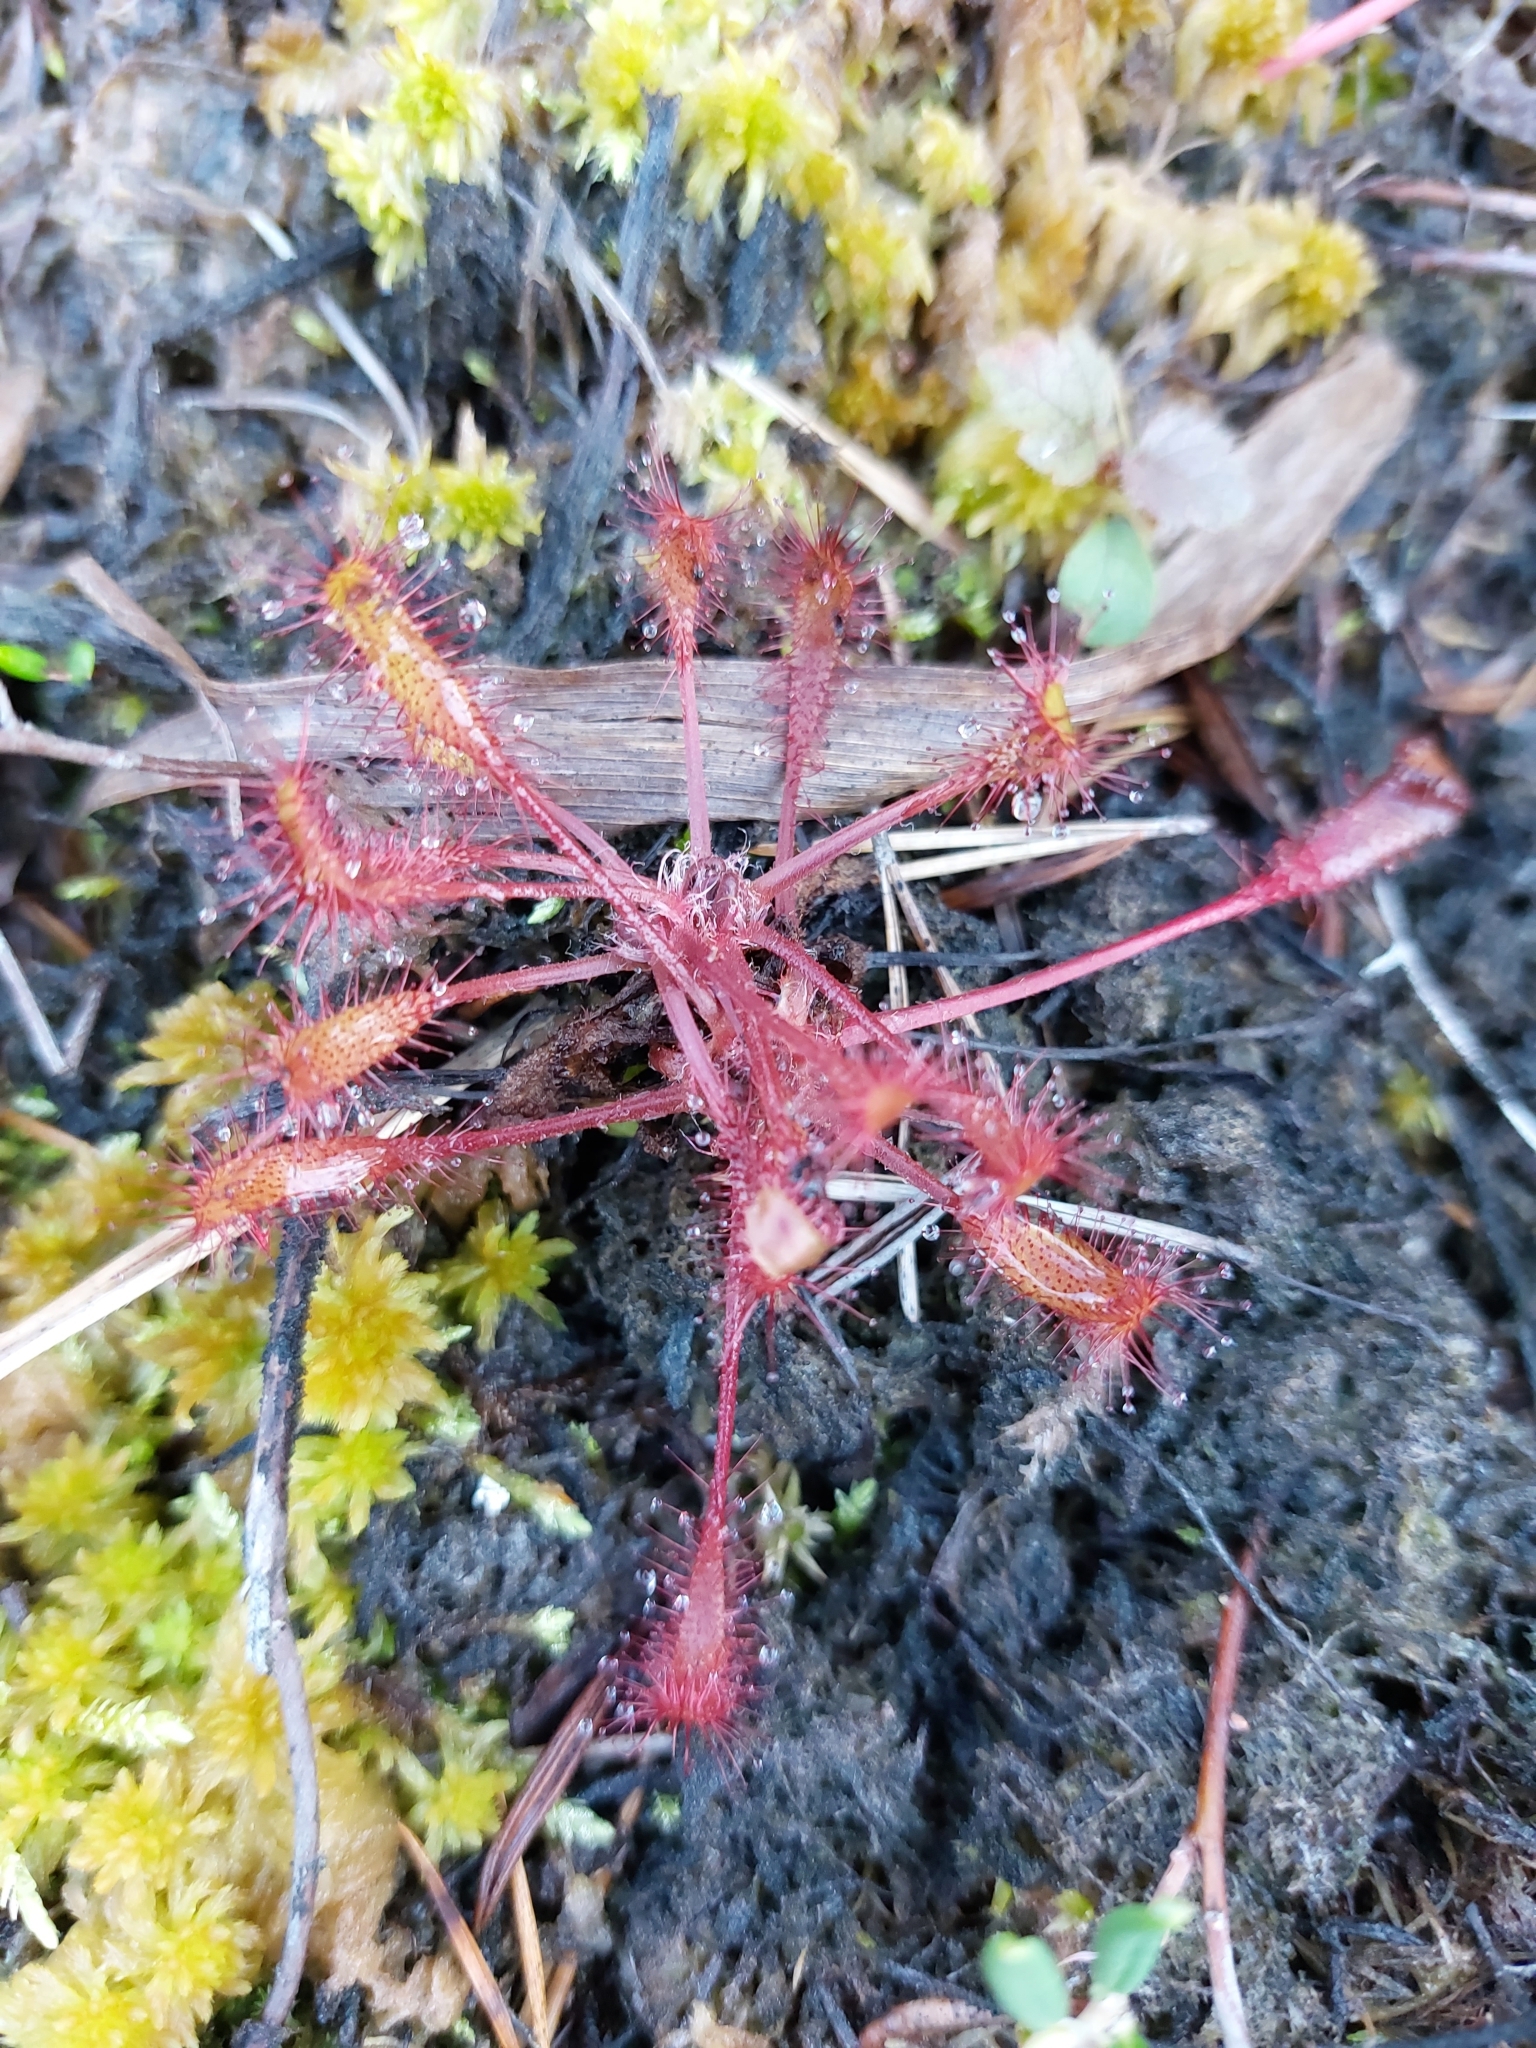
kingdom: Plantae
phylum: Tracheophyta
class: Magnoliopsida
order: Caryophyllales
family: Droseraceae
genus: Drosera
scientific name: Drosera anglica
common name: Great sundew
